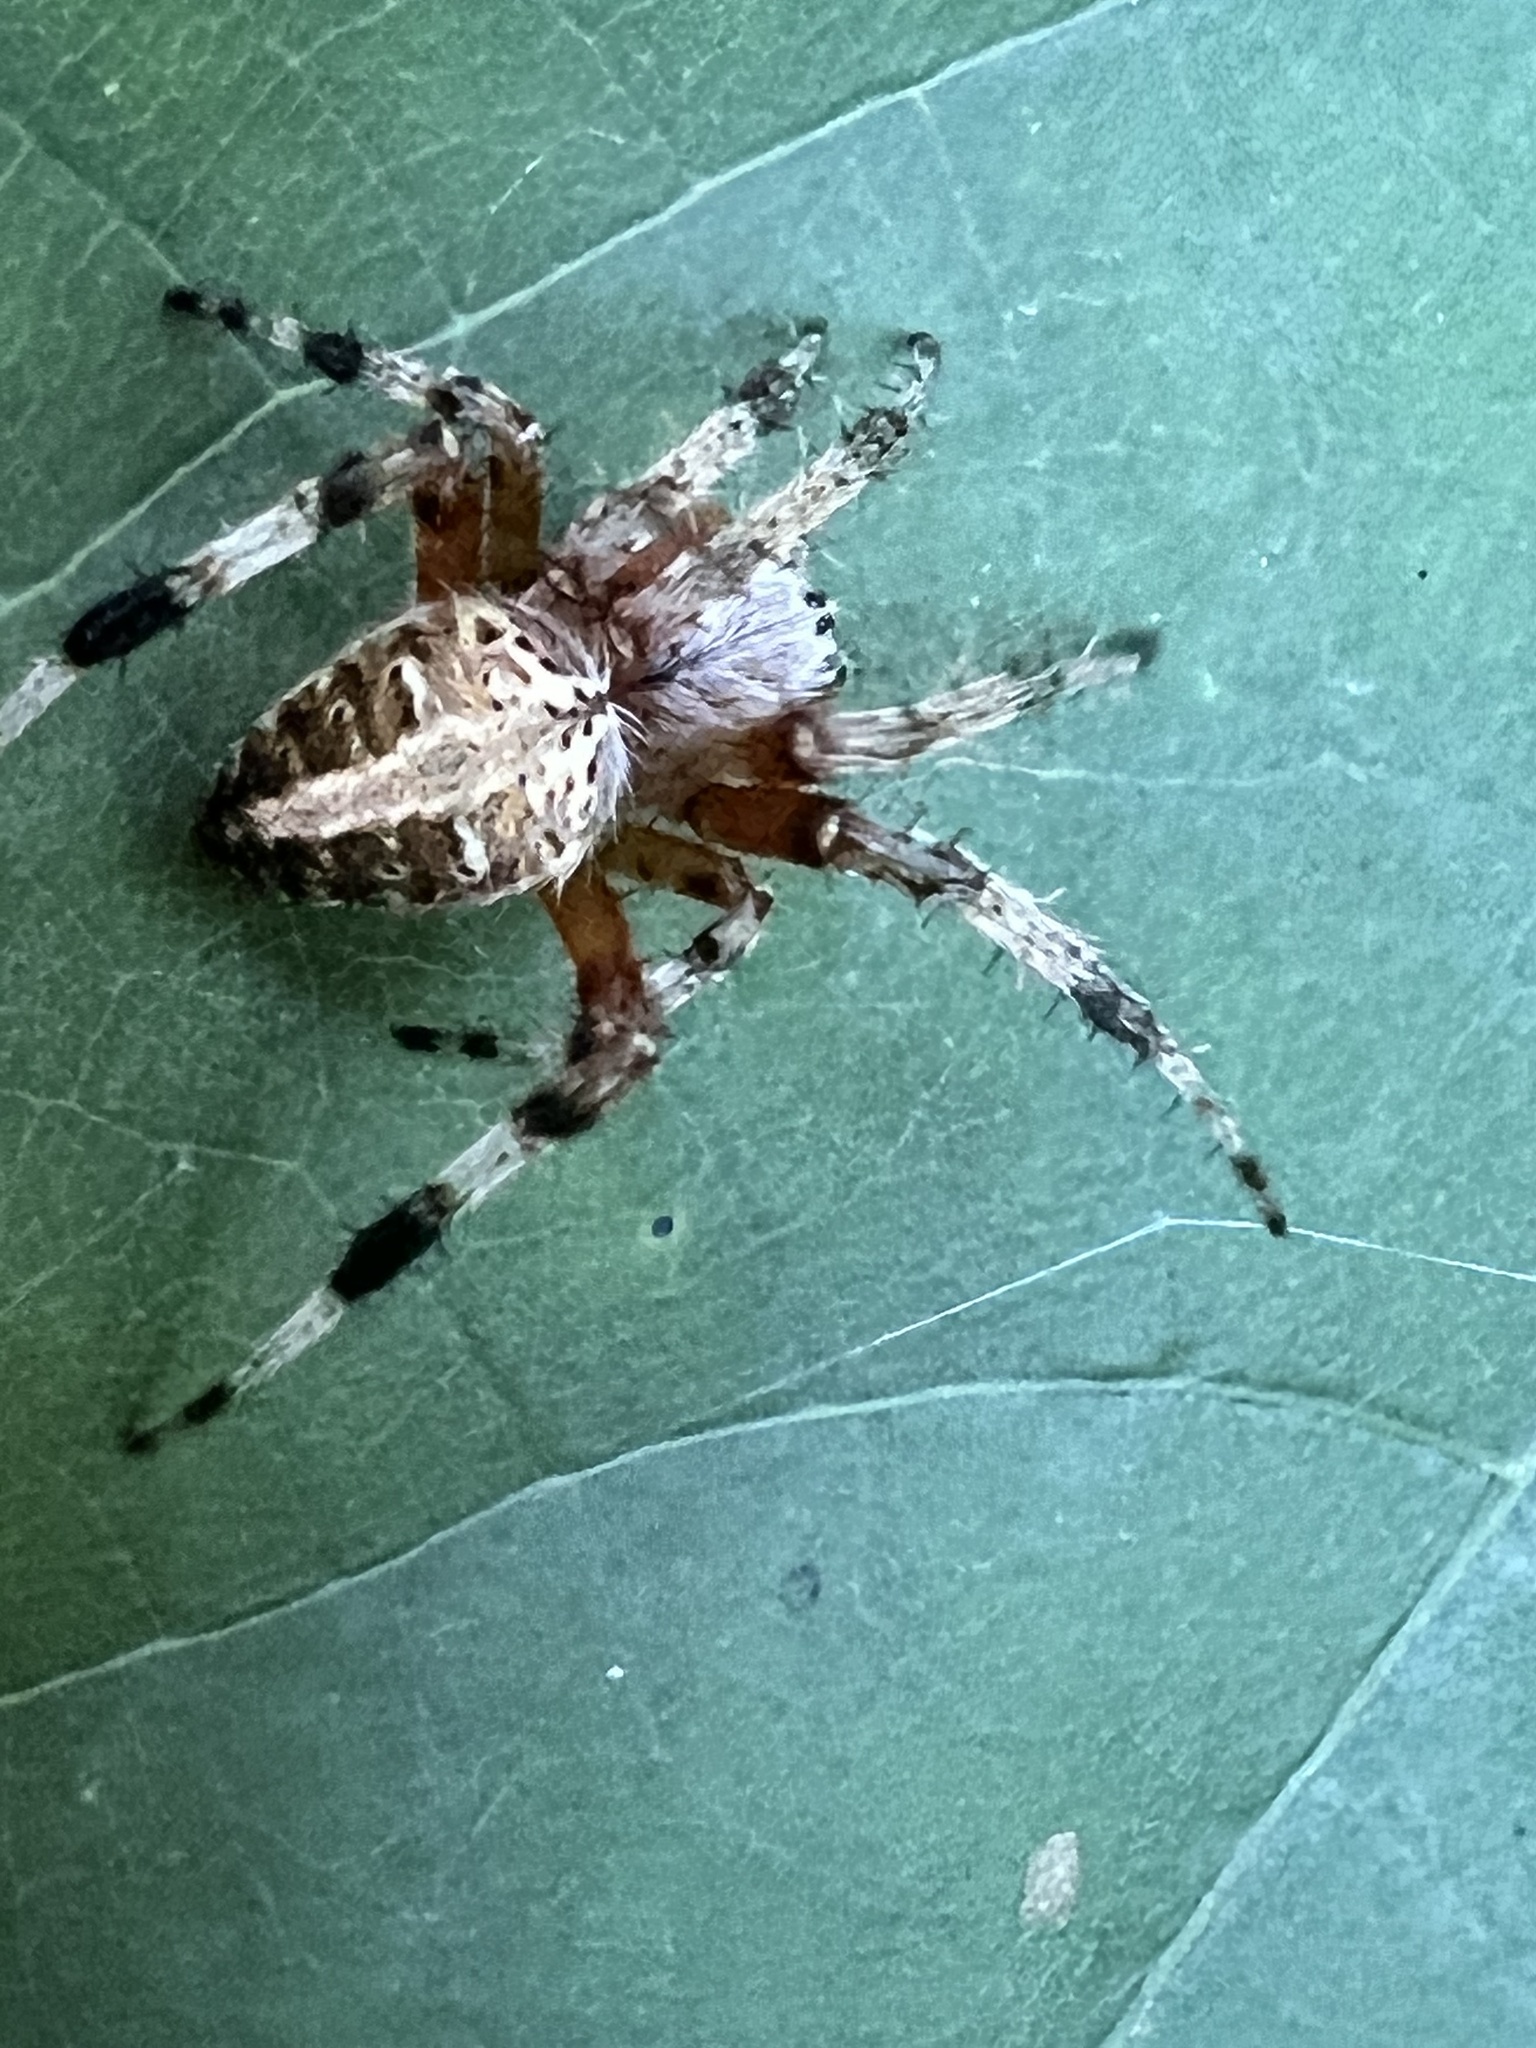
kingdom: Animalia
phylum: Arthropoda
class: Arachnida
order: Araneae
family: Araneidae
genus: Neoscona
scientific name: Neoscona domiciliorum
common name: Red-femured spotted orbweaver
